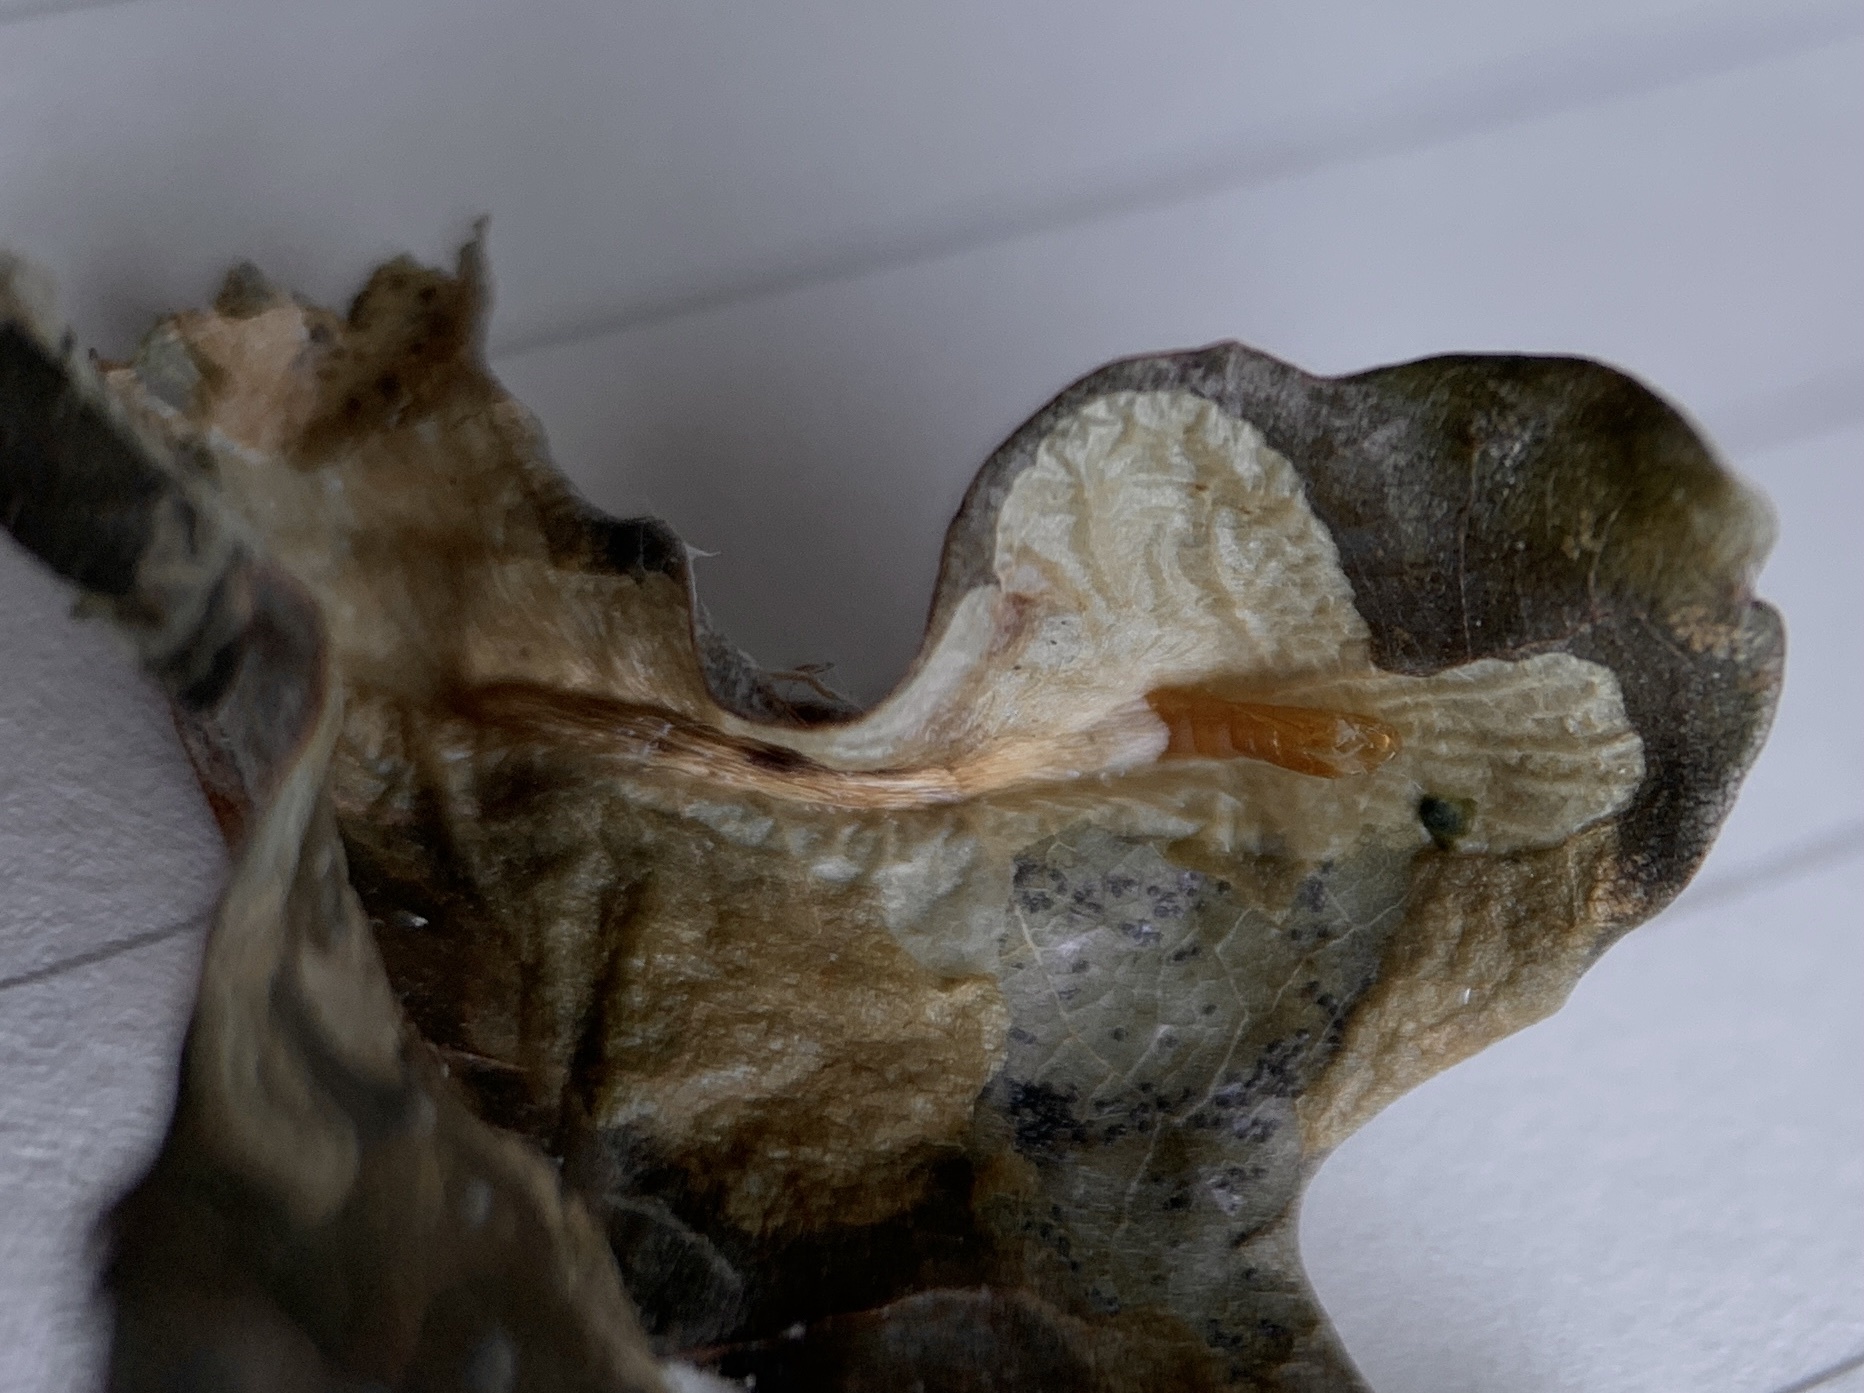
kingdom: Animalia
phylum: Arthropoda
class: Insecta
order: Lepidoptera
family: Tischeriidae
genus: Coptotriche
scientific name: Coptotriche purinosella
